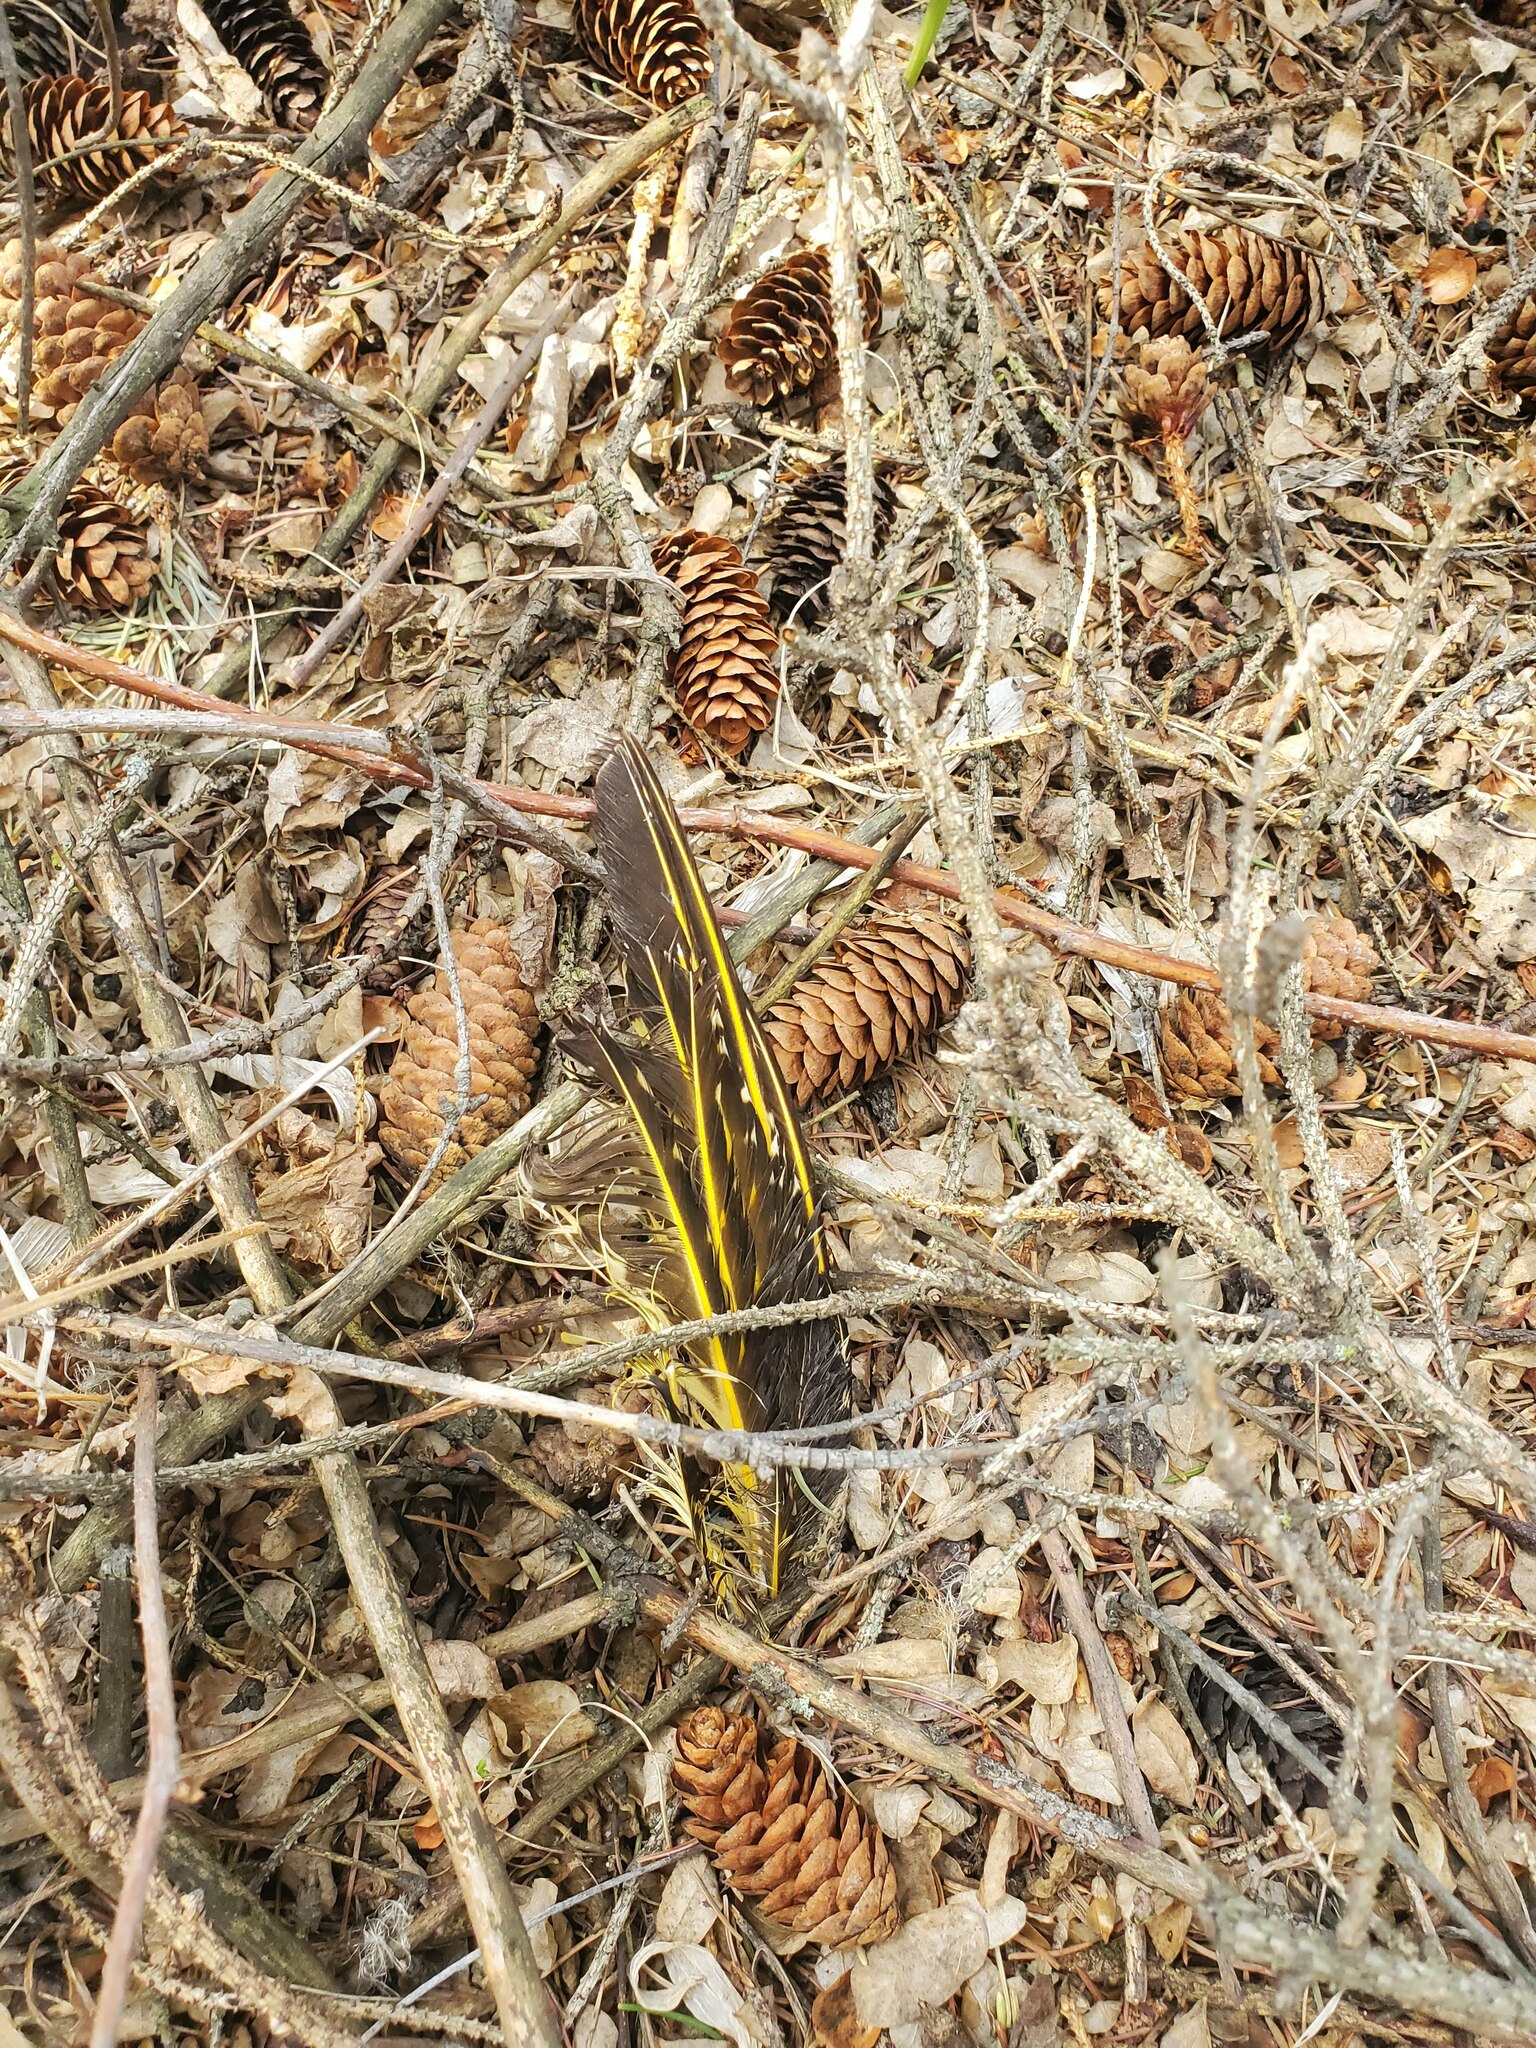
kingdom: Animalia
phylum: Chordata
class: Aves
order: Piciformes
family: Picidae
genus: Colaptes
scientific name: Colaptes auratus
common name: Northern flicker
